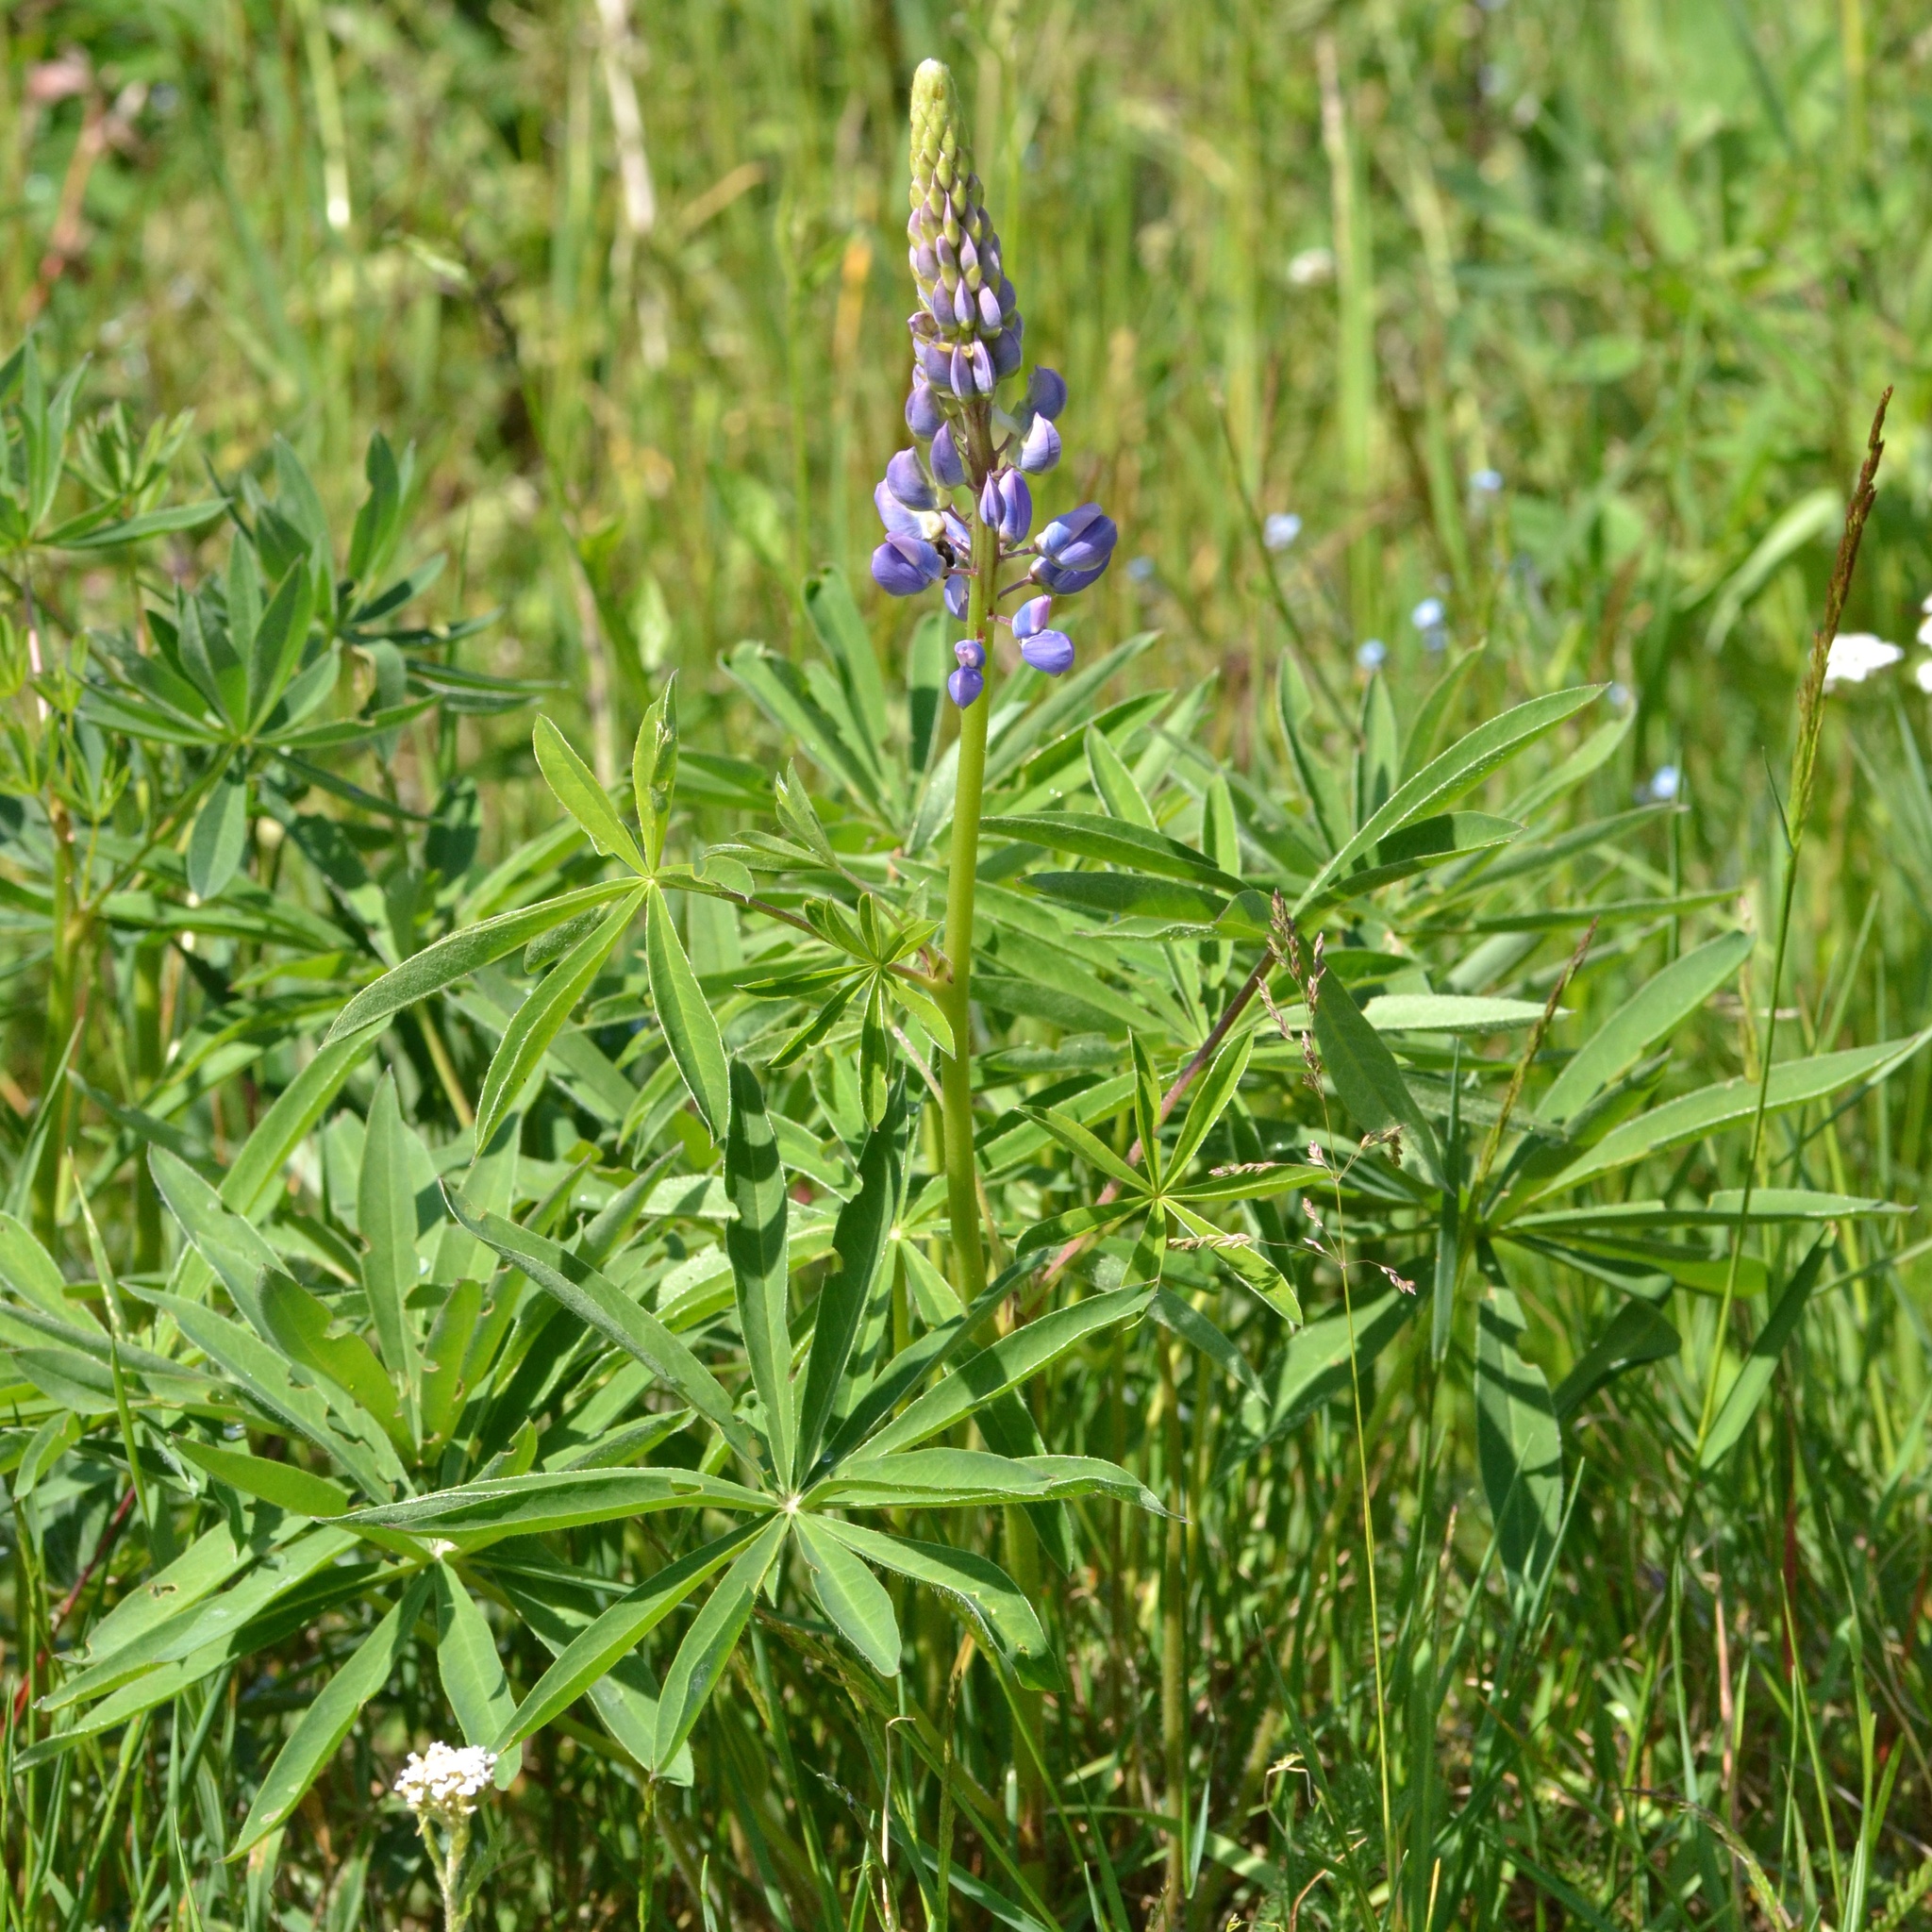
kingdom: Plantae
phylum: Tracheophyta
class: Magnoliopsida
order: Fabales
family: Fabaceae
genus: Lupinus
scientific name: Lupinus polyphyllus
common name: Garden lupin
